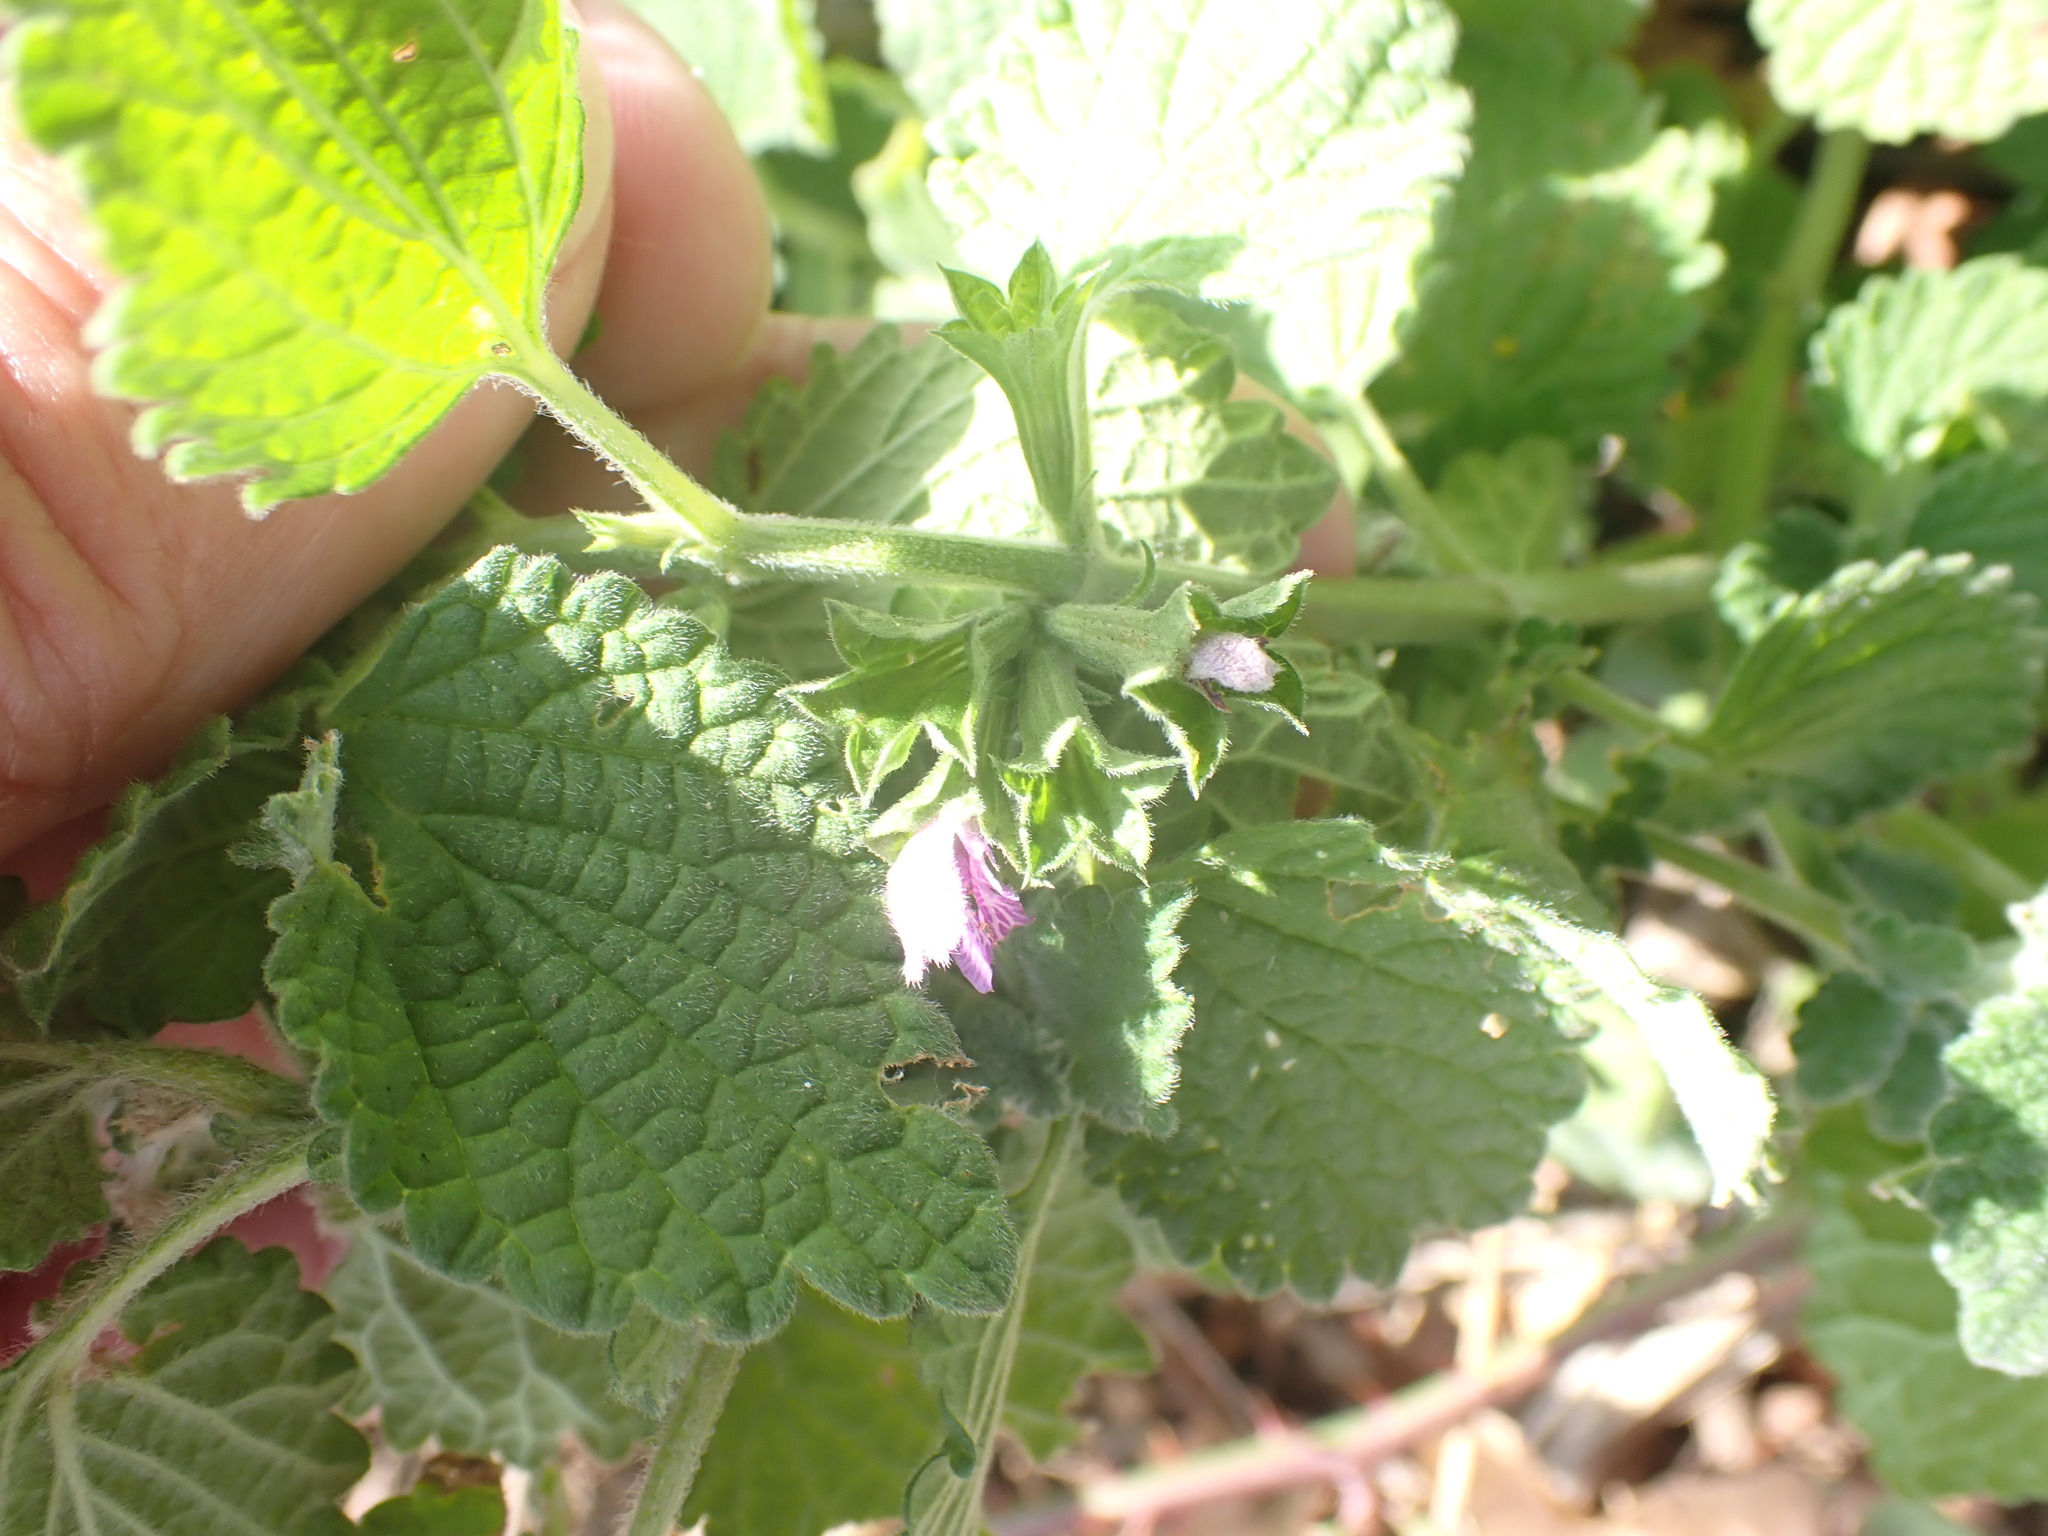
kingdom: Plantae
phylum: Tracheophyta
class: Magnoliopsida
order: Lamiales
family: Lamiaceae
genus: Ballota
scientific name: Ballota nigra
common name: Black horehound
